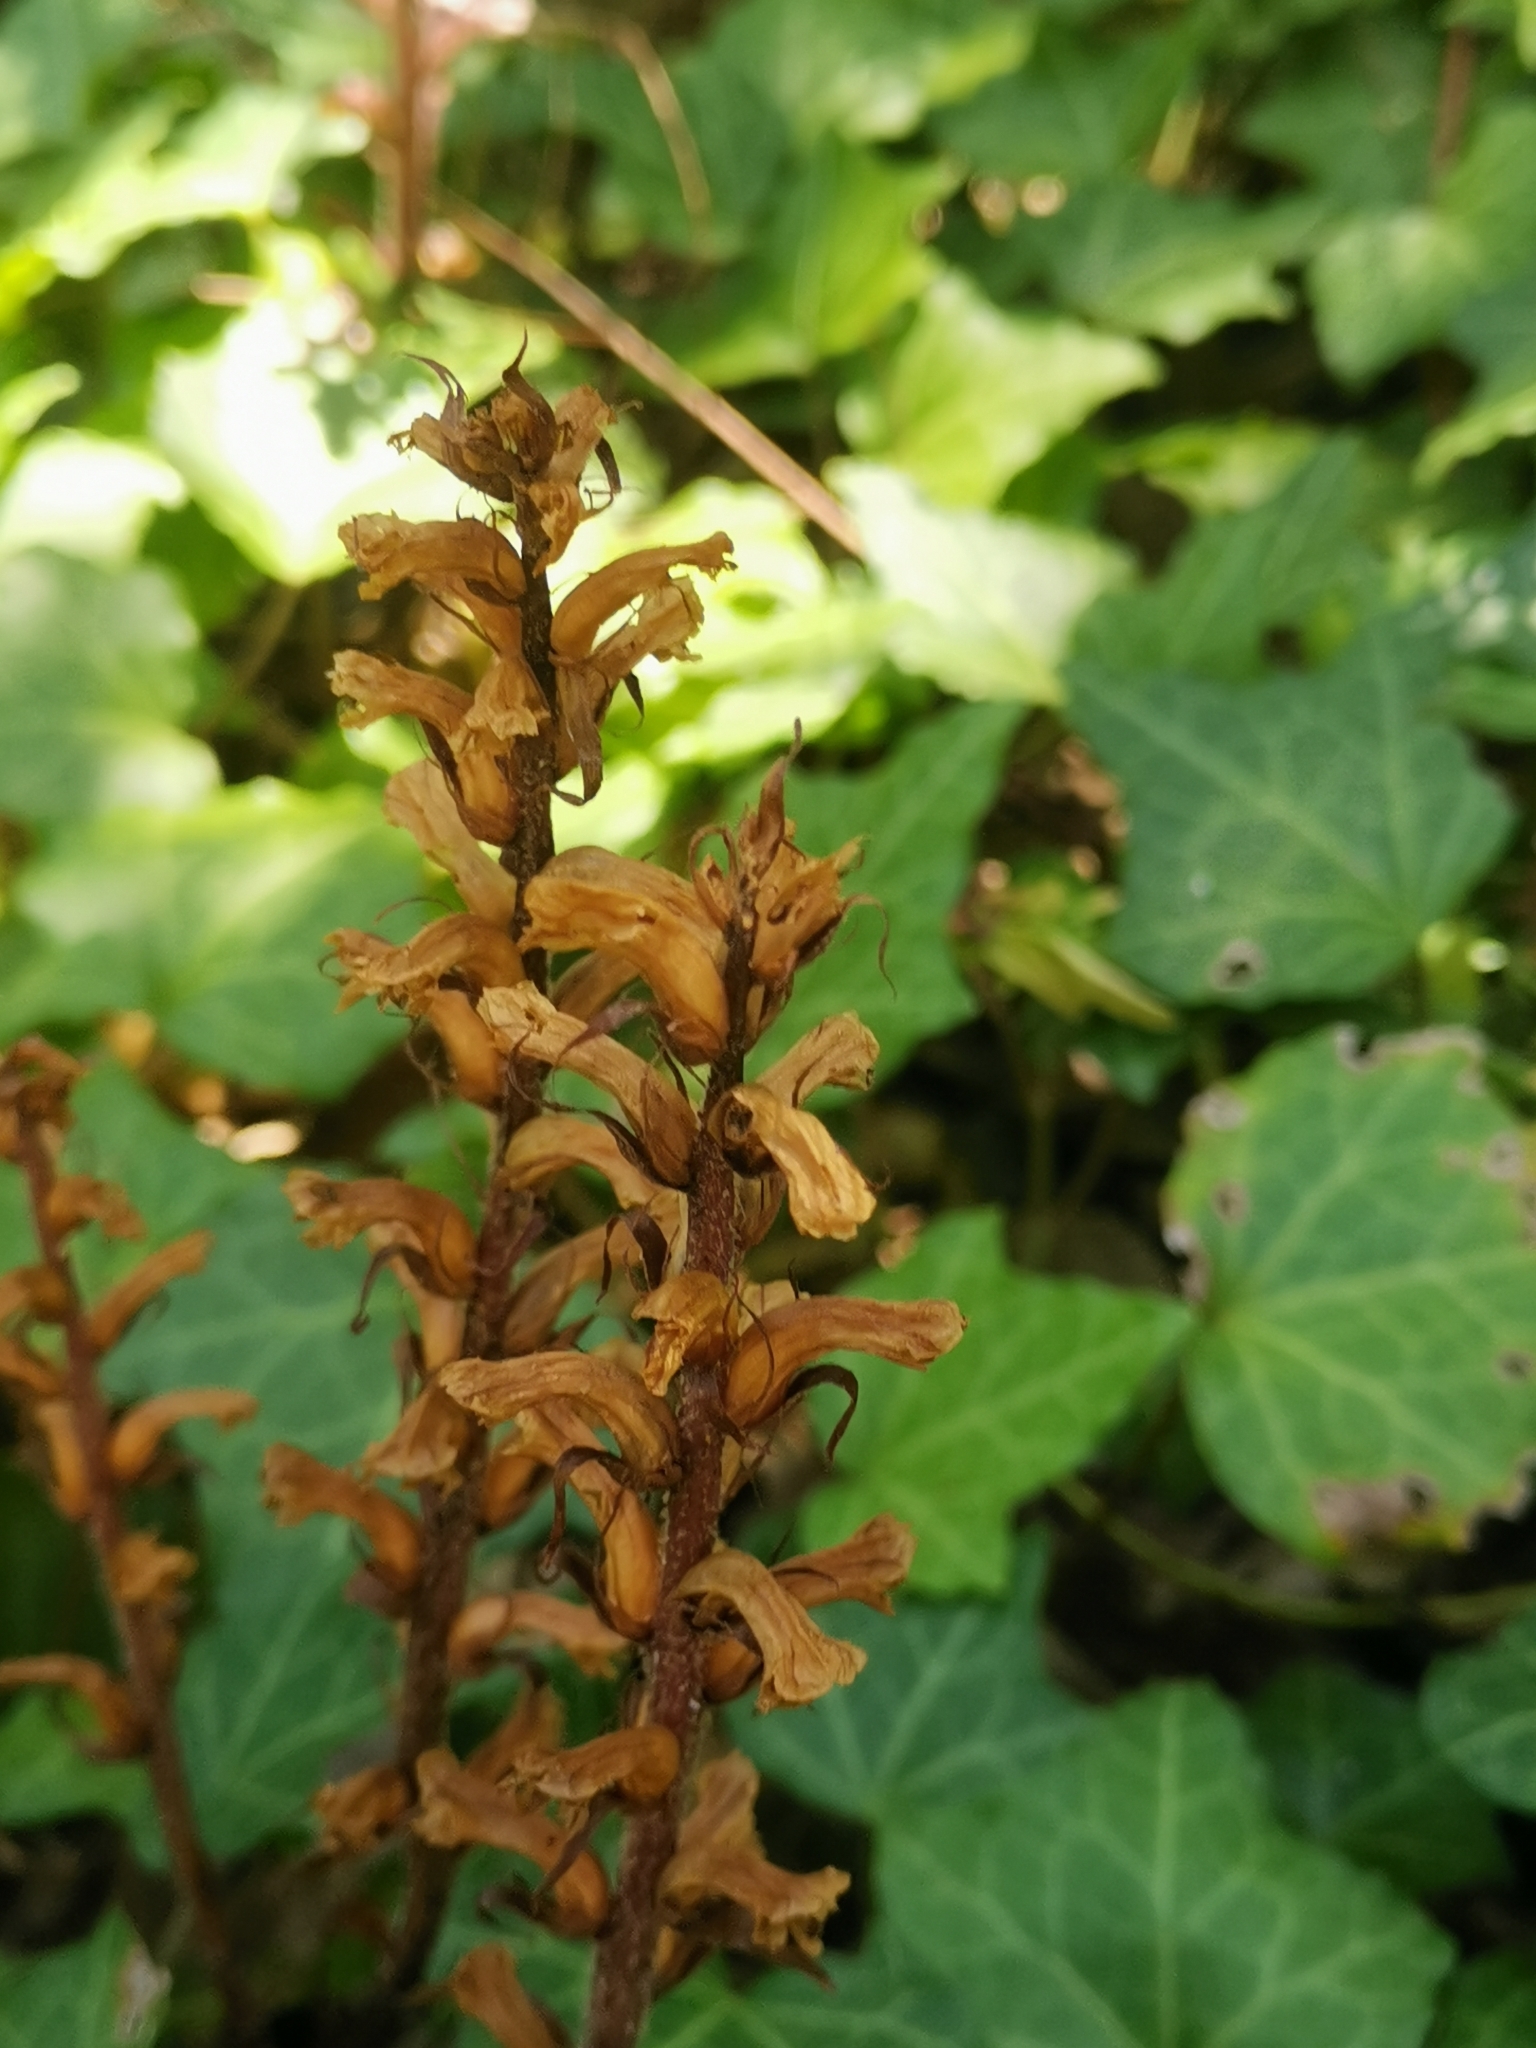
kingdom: Plantae
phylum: Tracheophyta
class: Magnoliopsida
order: Lamiales
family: Orobanchaceae
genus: Orobanche
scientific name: Orobanche hederae
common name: Ivy broomrape
